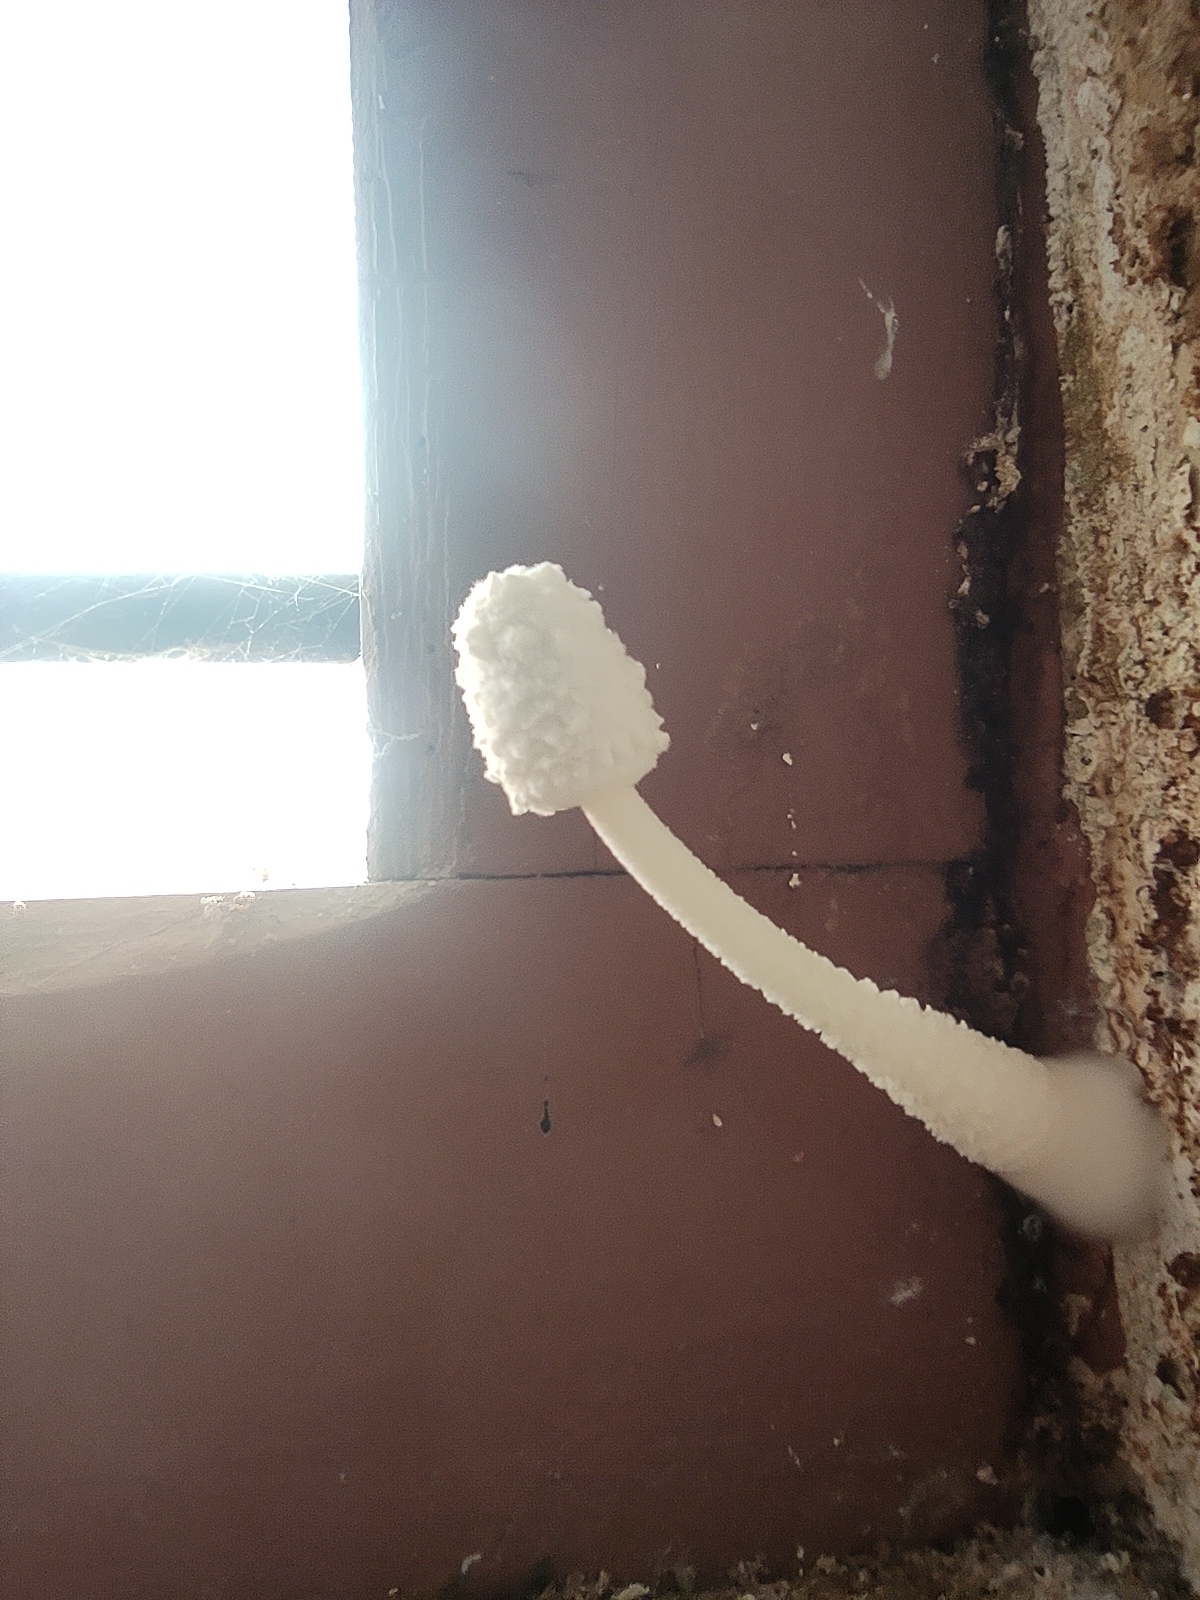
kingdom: Fungi
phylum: Basidiomycota
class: Agaricomycetes
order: Agaricales
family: Agaricaceae
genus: Leucocoprinus
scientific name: Leucocoprinus cretaceus
